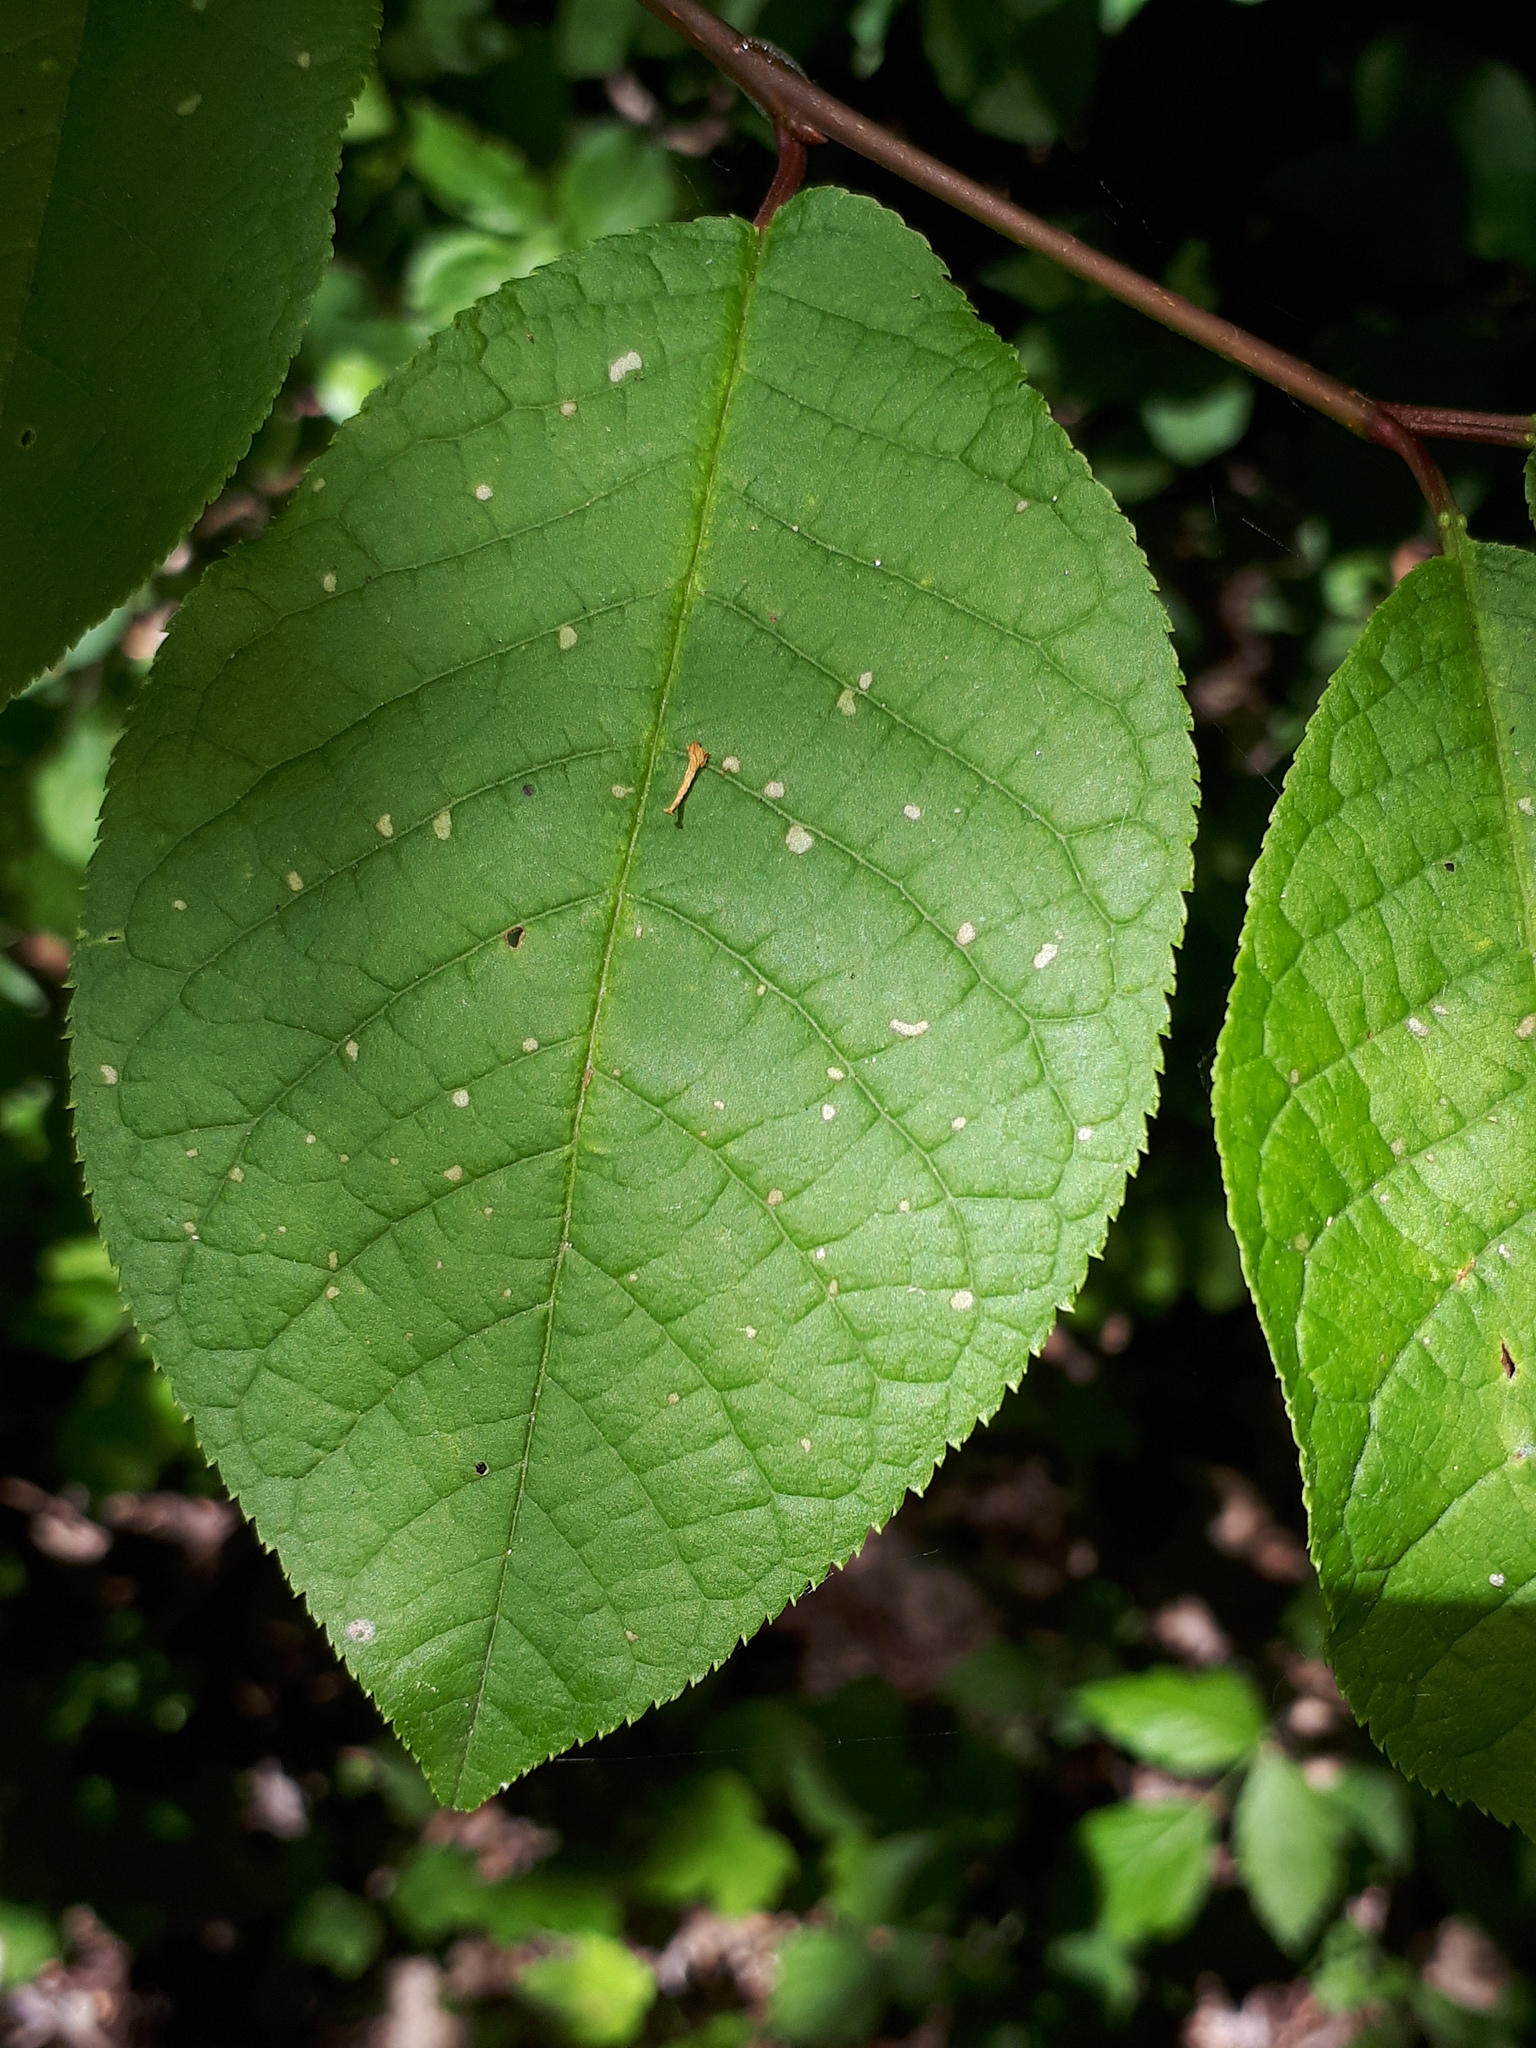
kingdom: Plantae
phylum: Tracheophyta
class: Magnoliopsida
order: Rosales
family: Rosaceae
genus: Prunus
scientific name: Prunus padus
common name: Bird cherry
